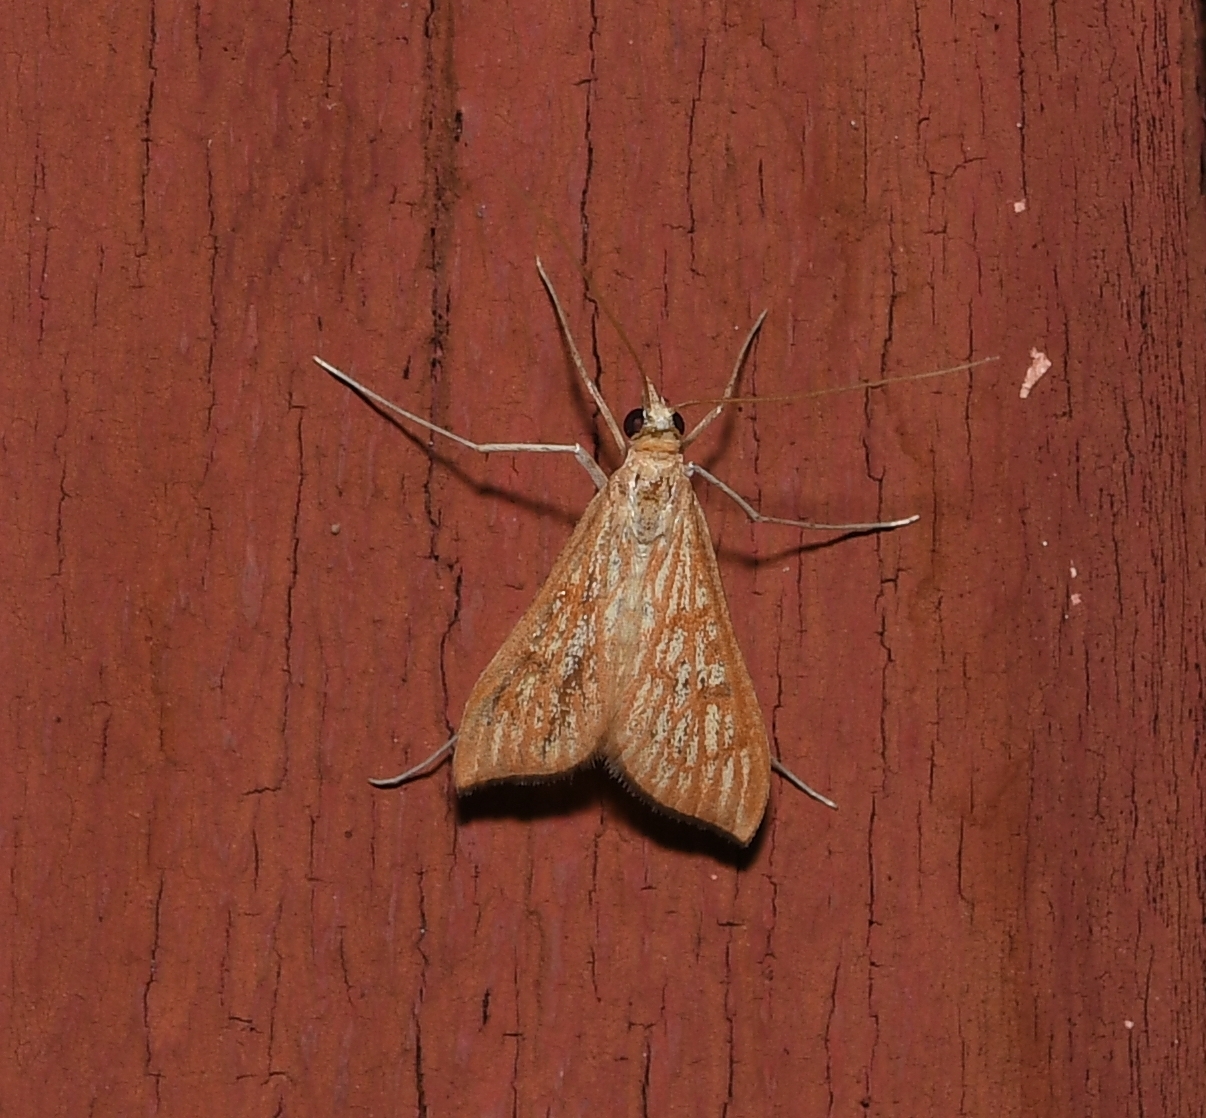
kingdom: Animalia
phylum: Arthropoda
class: Insecta
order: Lepidoptera
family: Crambidae
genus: Antigastra
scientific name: Antigastra catalaunalis
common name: Spanish dot
